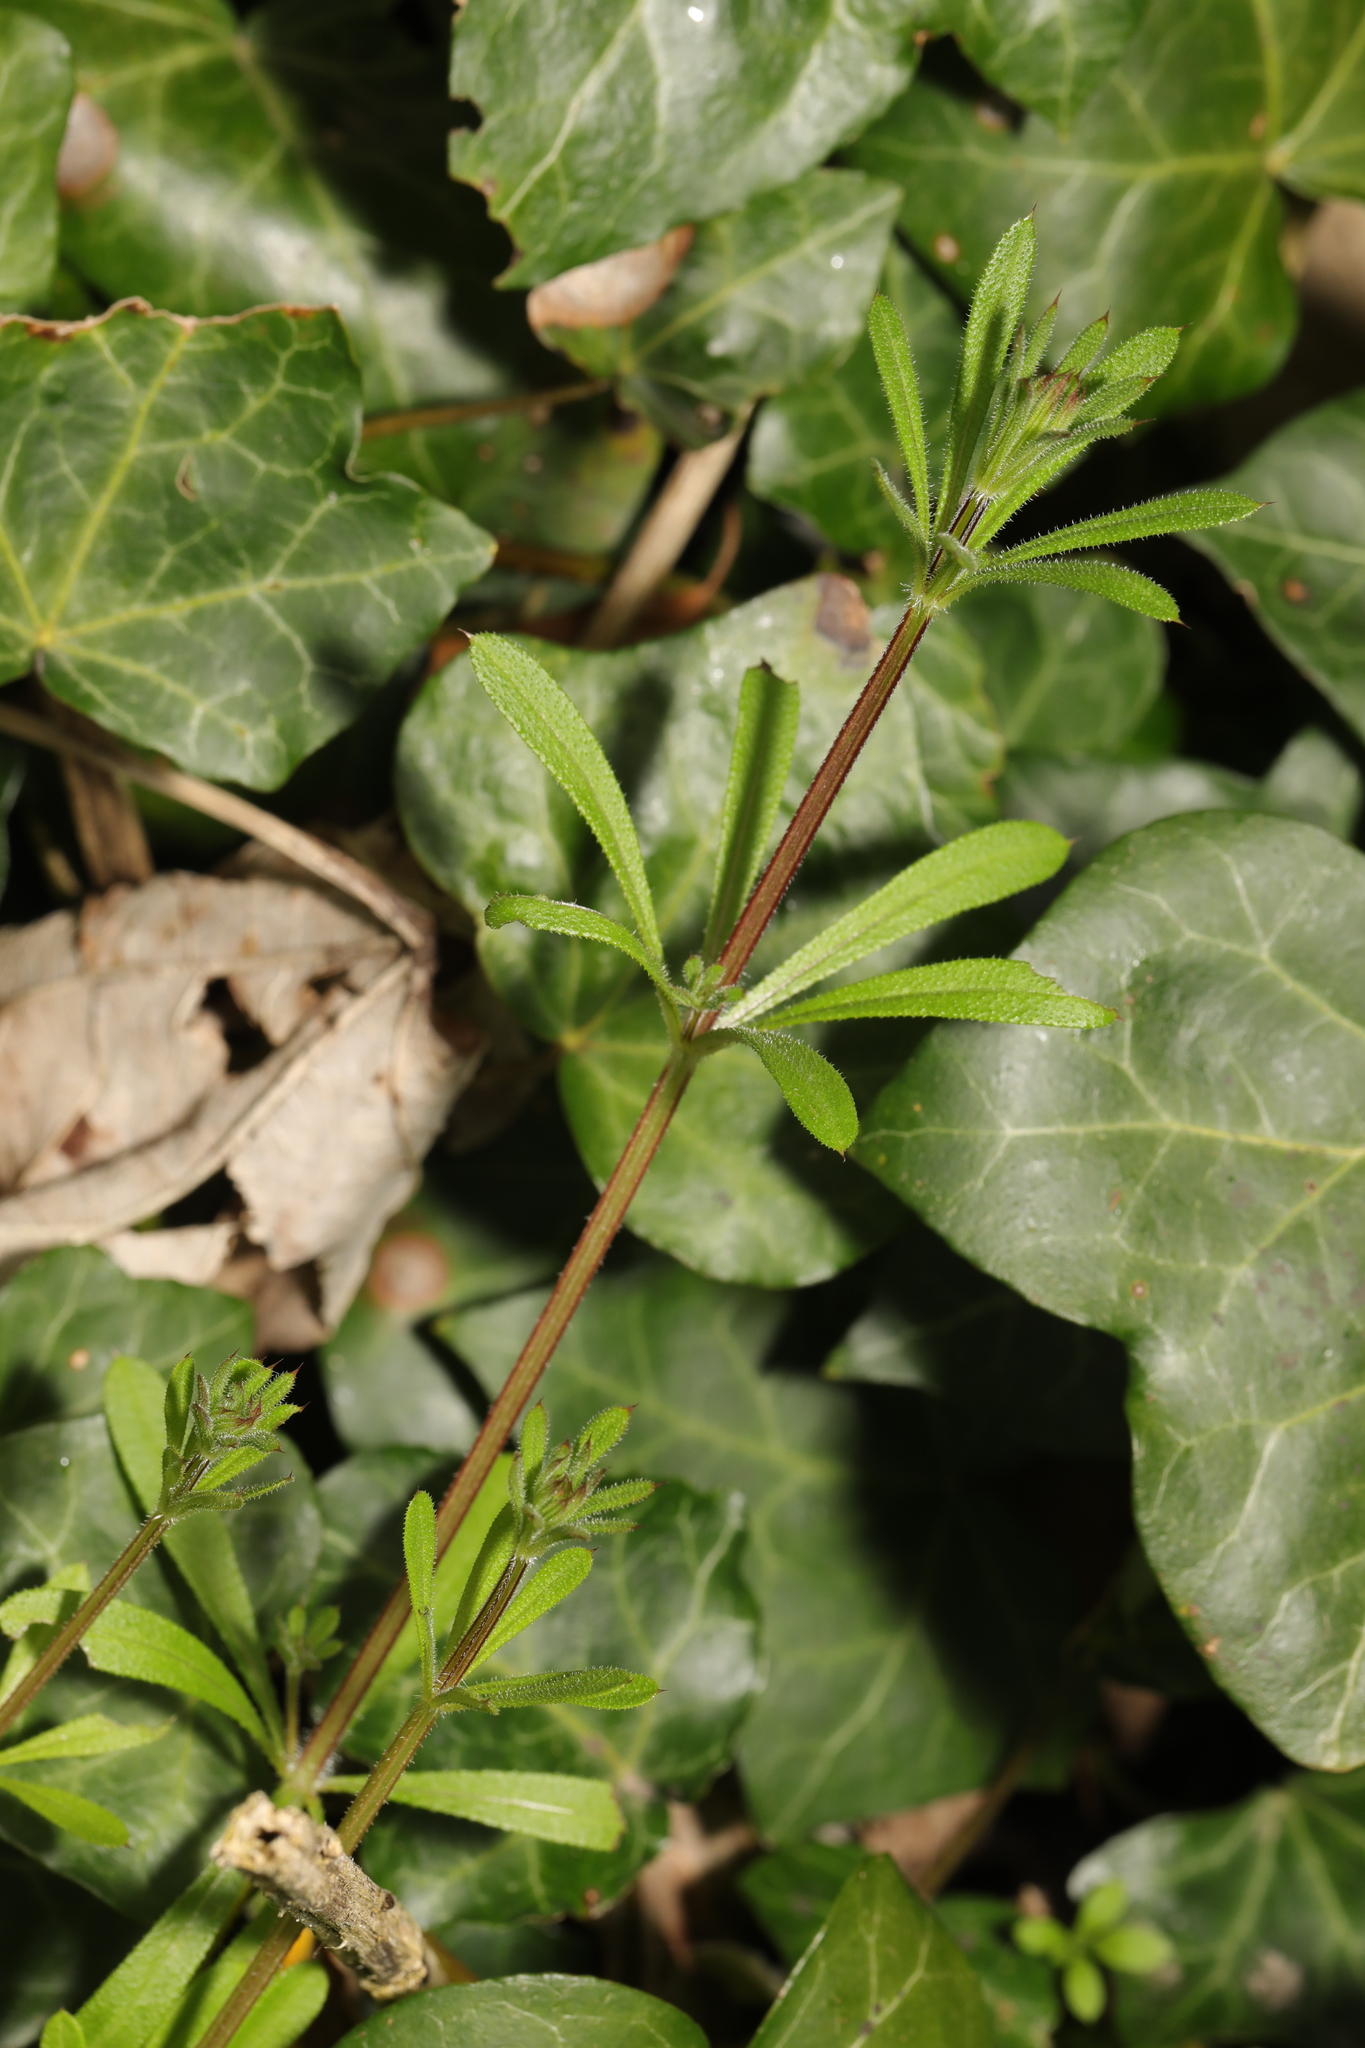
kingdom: Plantae
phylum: Tracheophyta
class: Magnoliopsida
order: Gentianales
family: Rubiaceae
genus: Galium
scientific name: Galium aparine
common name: Cleavers
